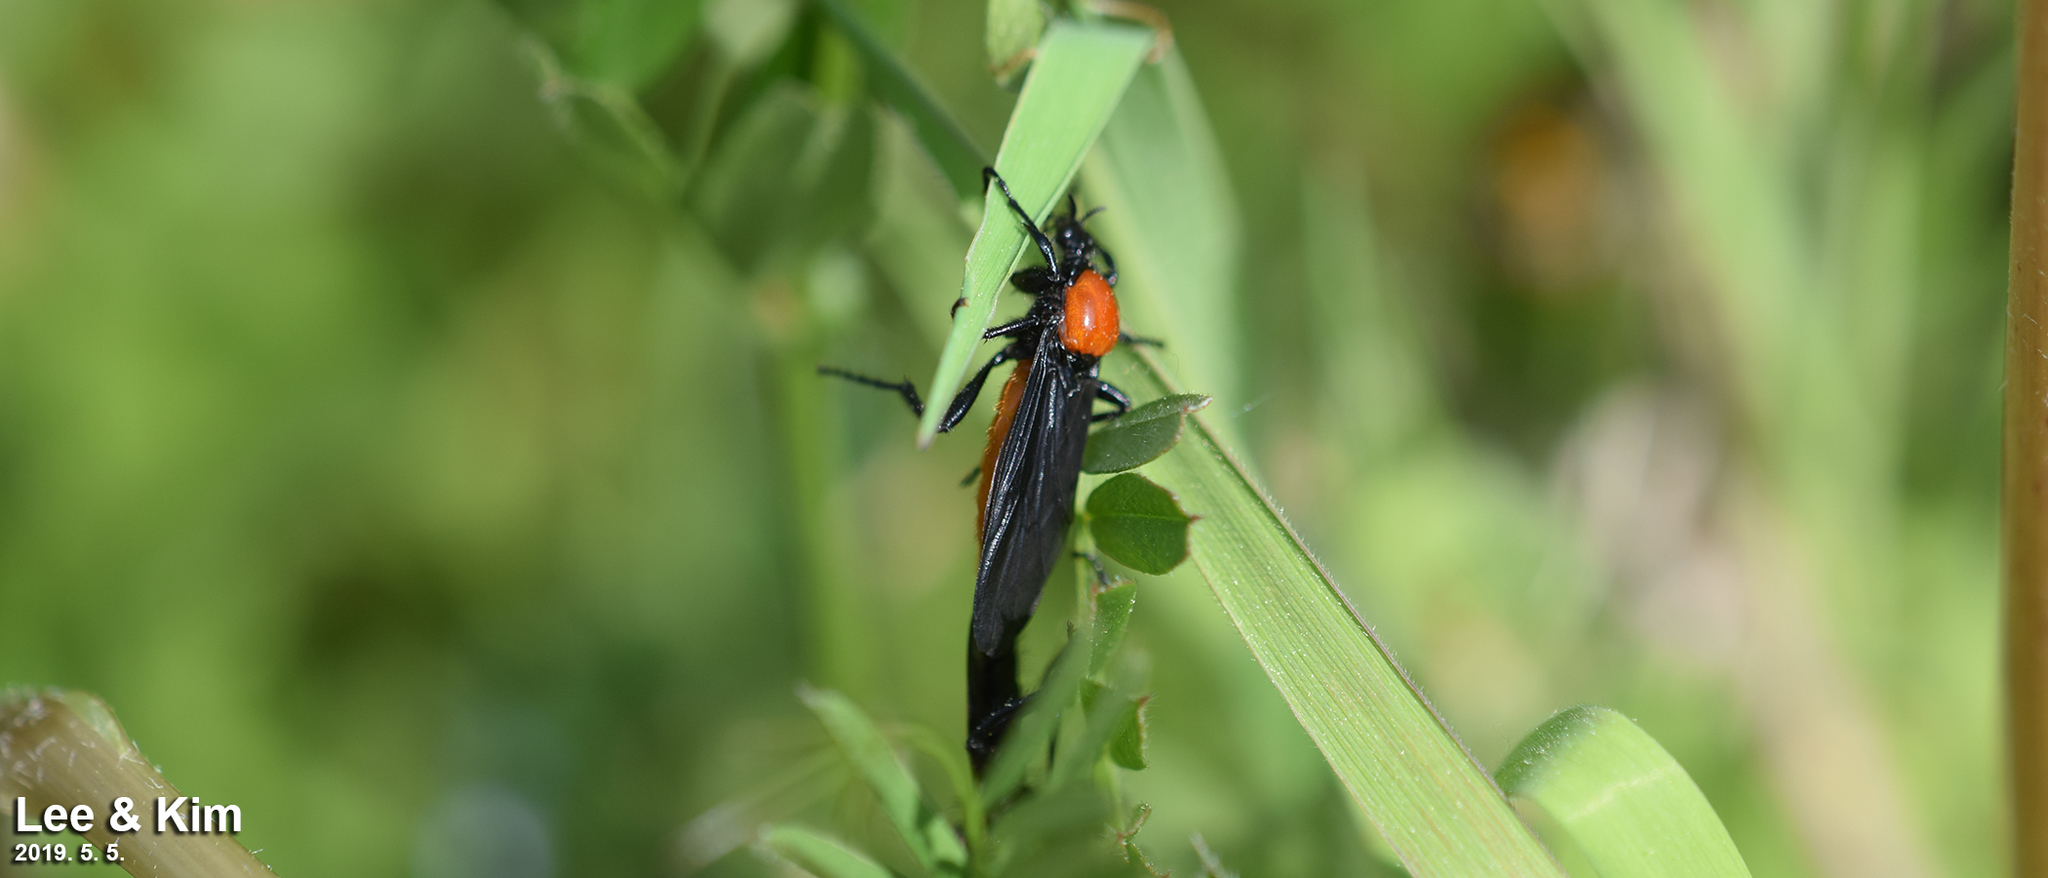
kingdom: Animalia
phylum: Arthropoda
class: Insecta
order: Diptera
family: Bibionidae
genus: Bibio
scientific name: Bibio rufiventris
